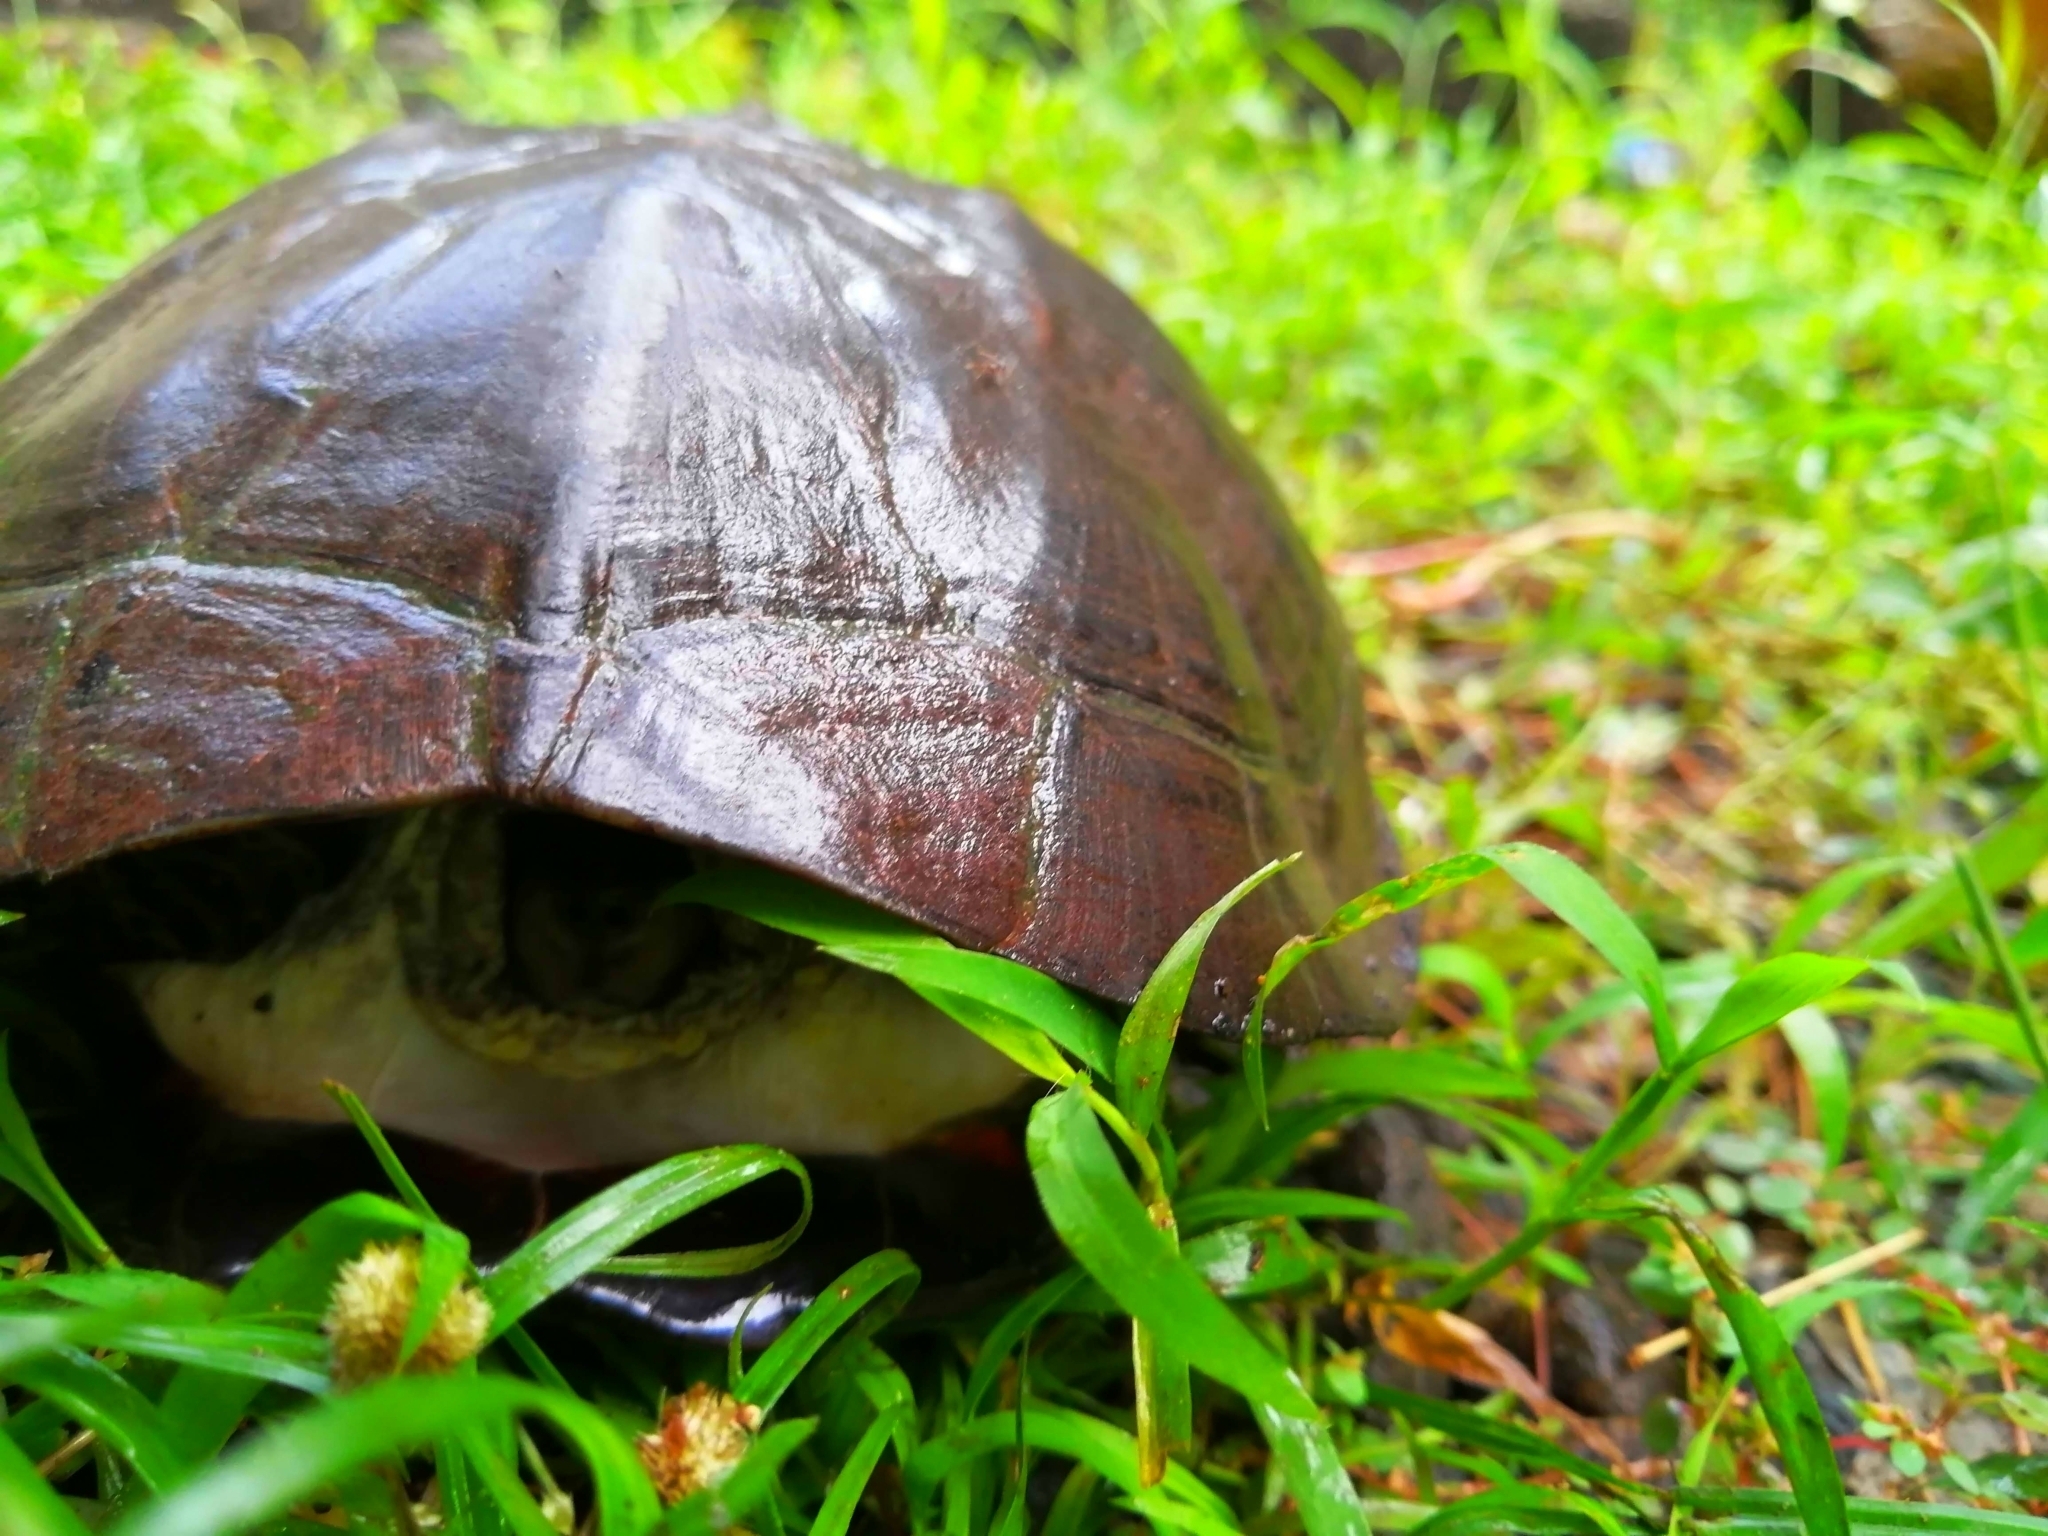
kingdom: Animalia
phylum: Chordata
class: Testudines
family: Geoemydidae
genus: Melanochelys
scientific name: Melanochelys trijuga
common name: Indian black turtle
